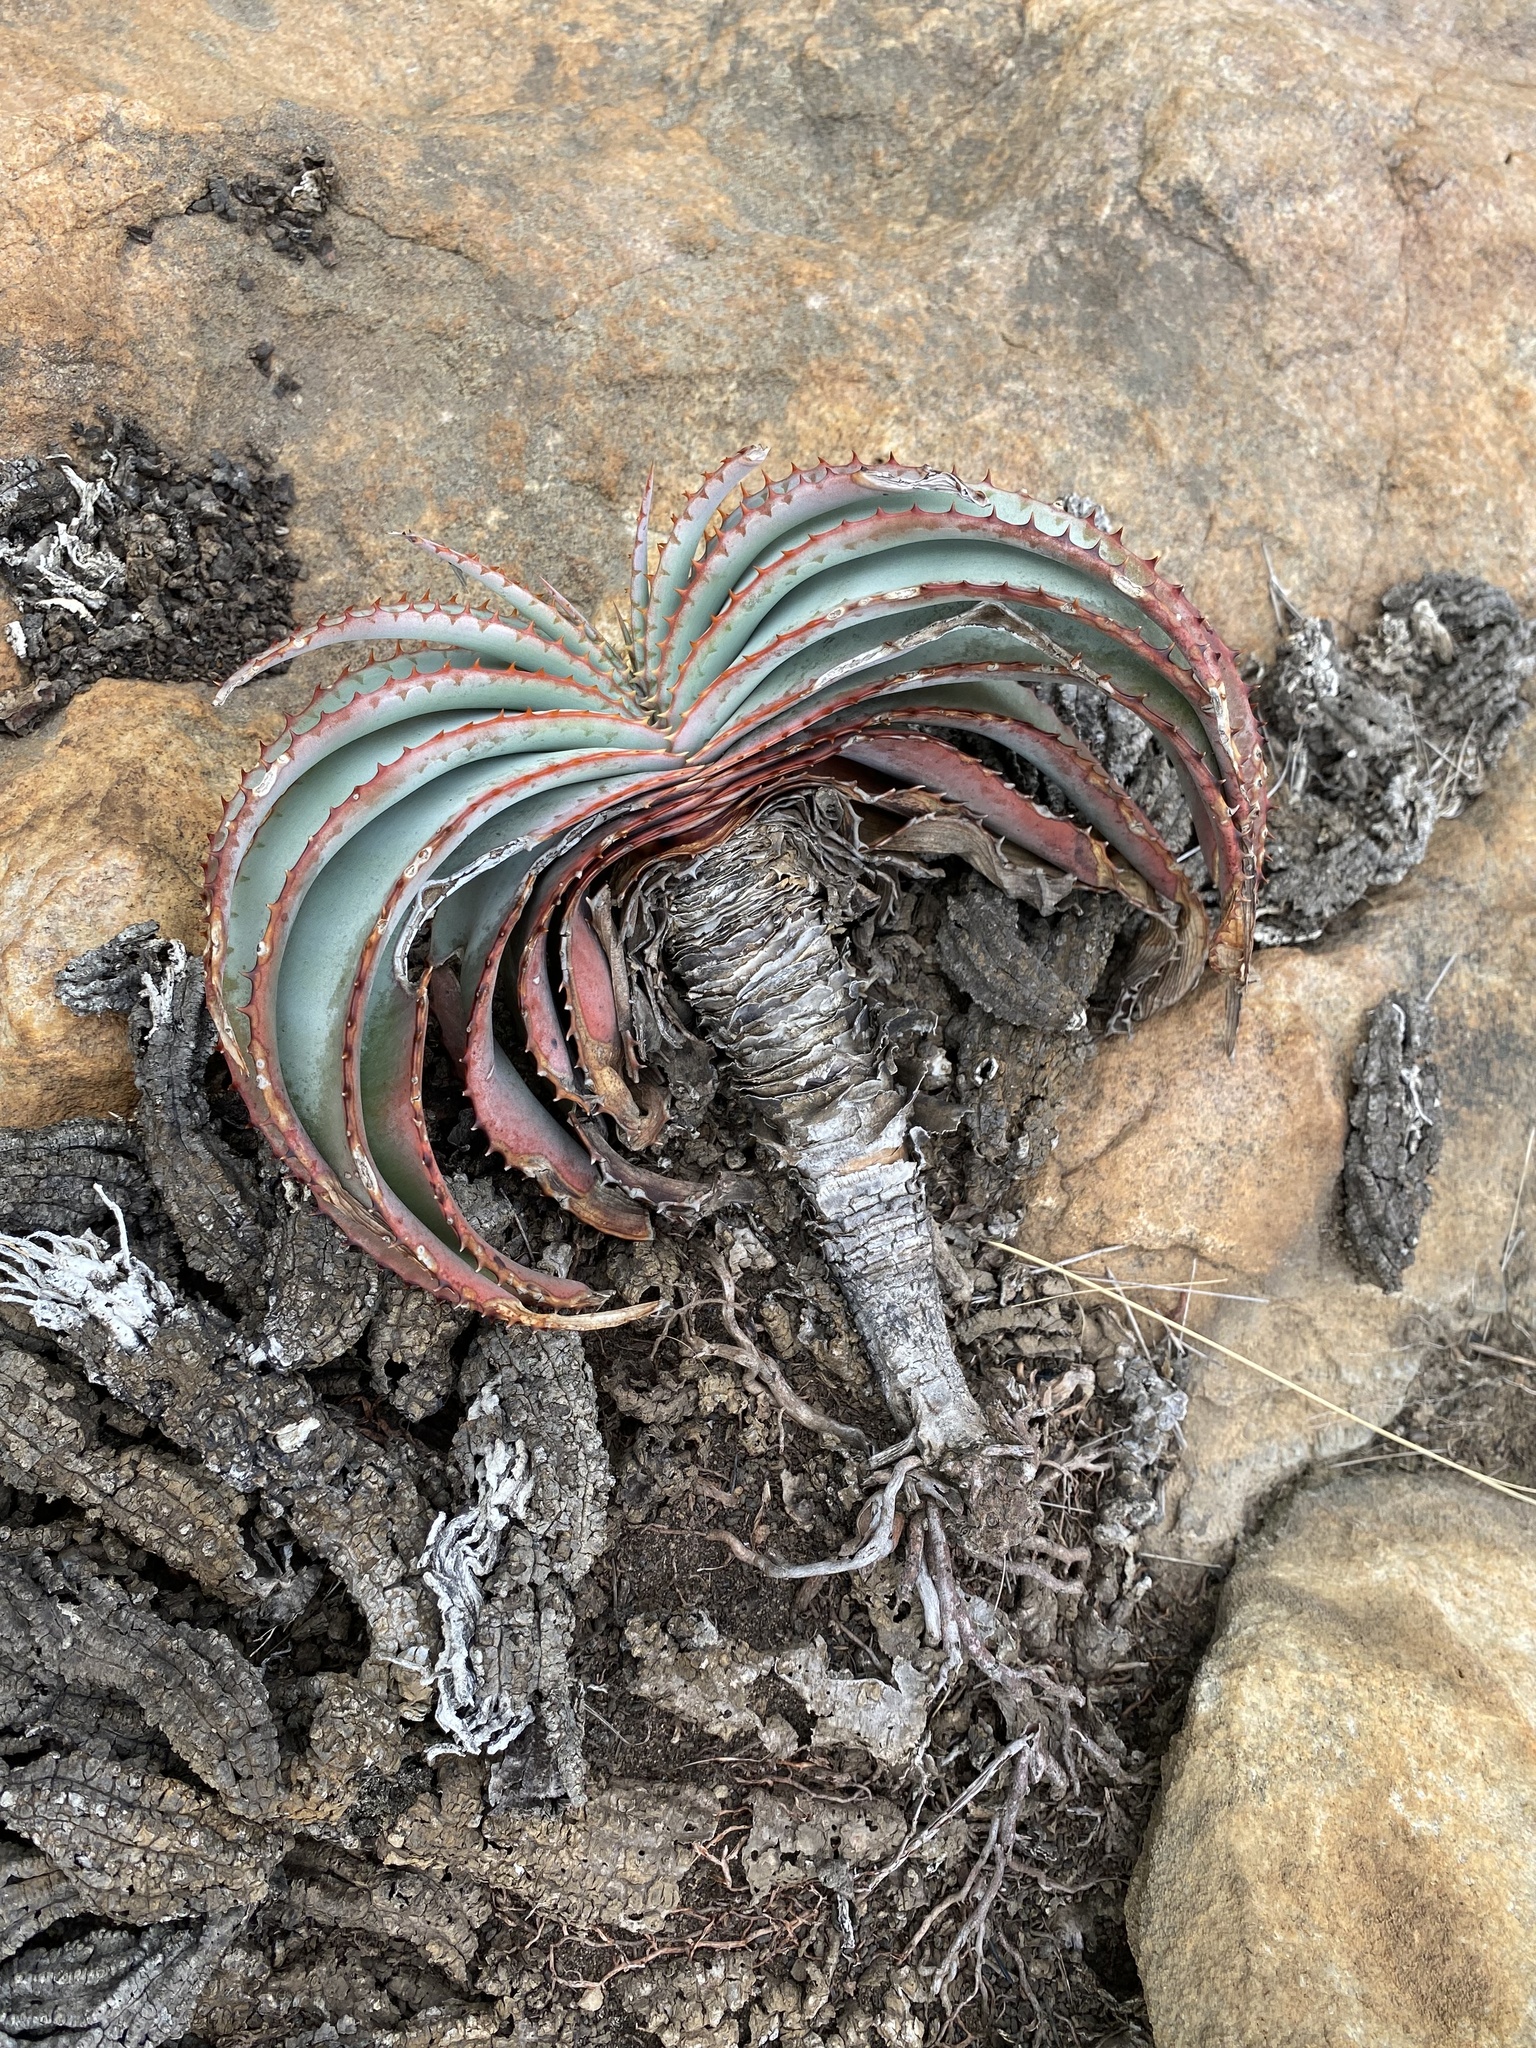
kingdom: Plantae
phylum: Tracheophyta
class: Liliopsida
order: Asparagales
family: Asphodelaceae
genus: Aloe
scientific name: Aloe suprafoliata
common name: Book aloe
